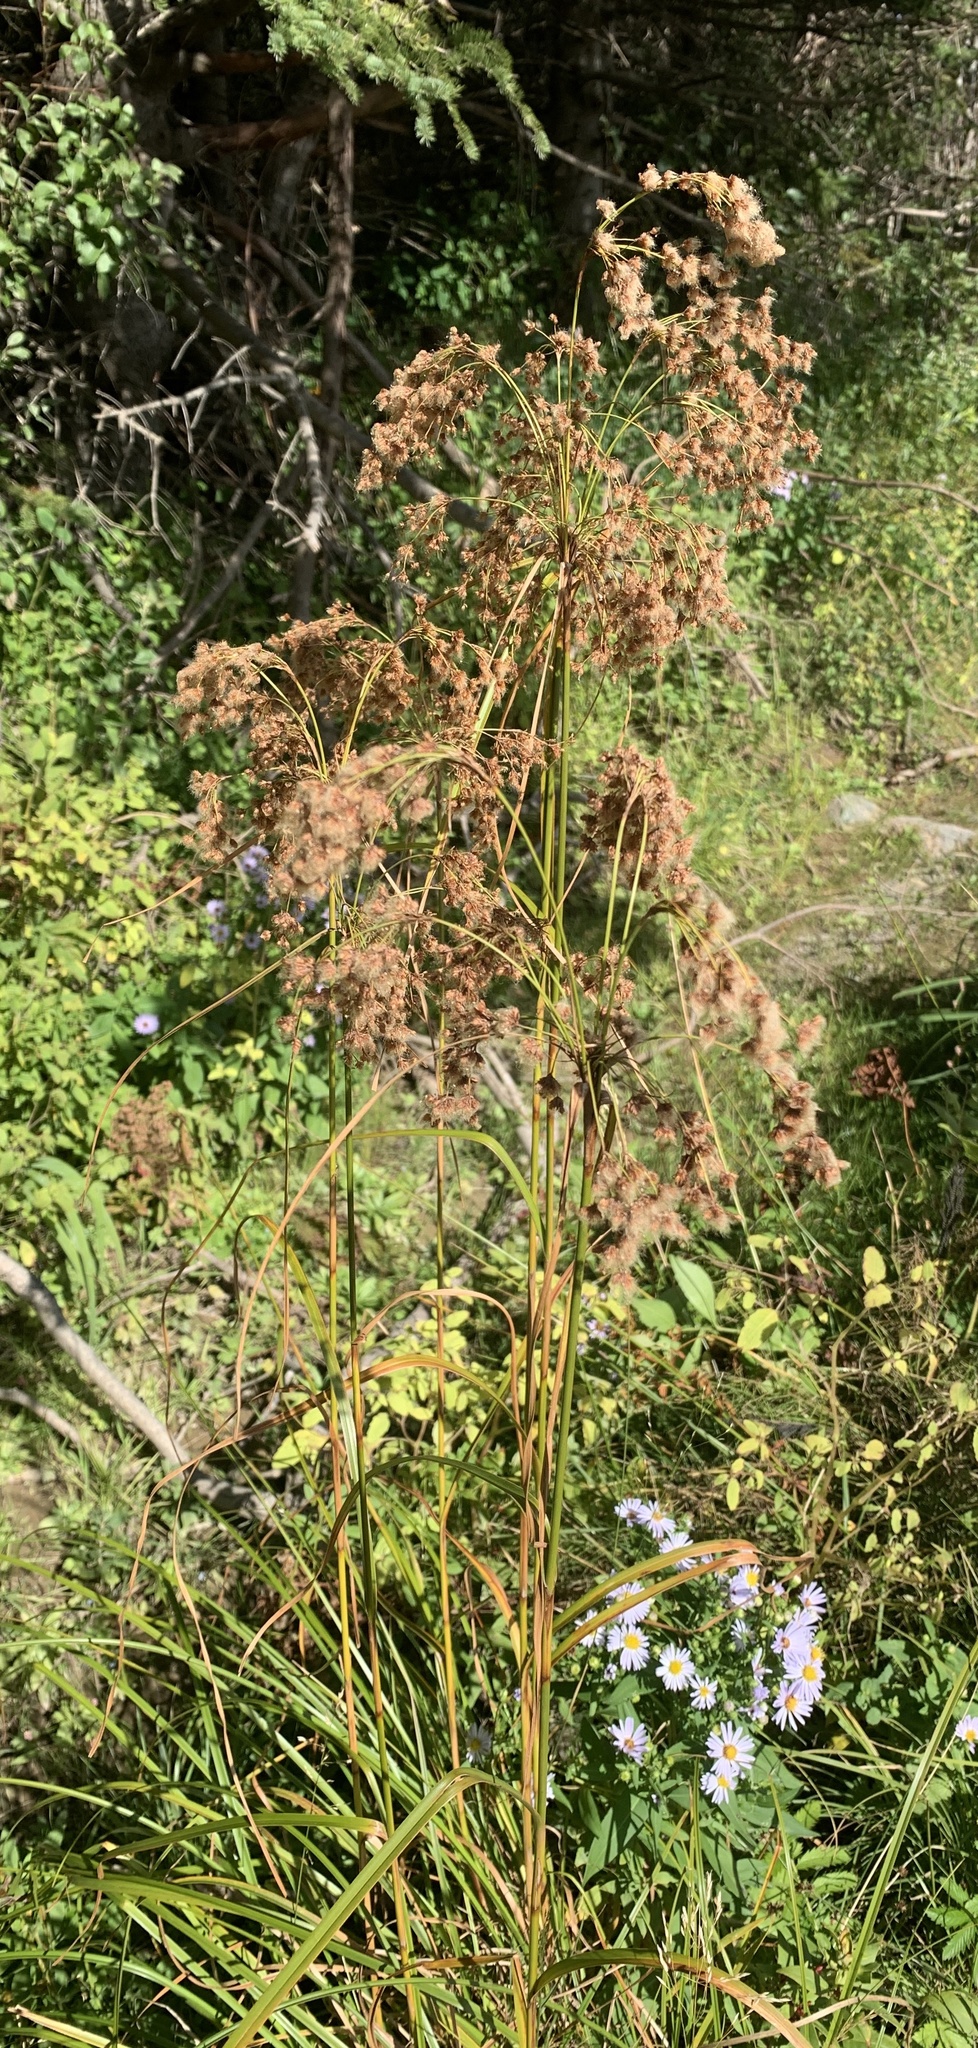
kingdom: Plantae
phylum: Tracheophyta
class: Liliopsida
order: Poales
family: Cyperaceae
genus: Scirpus
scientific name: Scirpus cyperinus
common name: Black-sheathed bulrush
